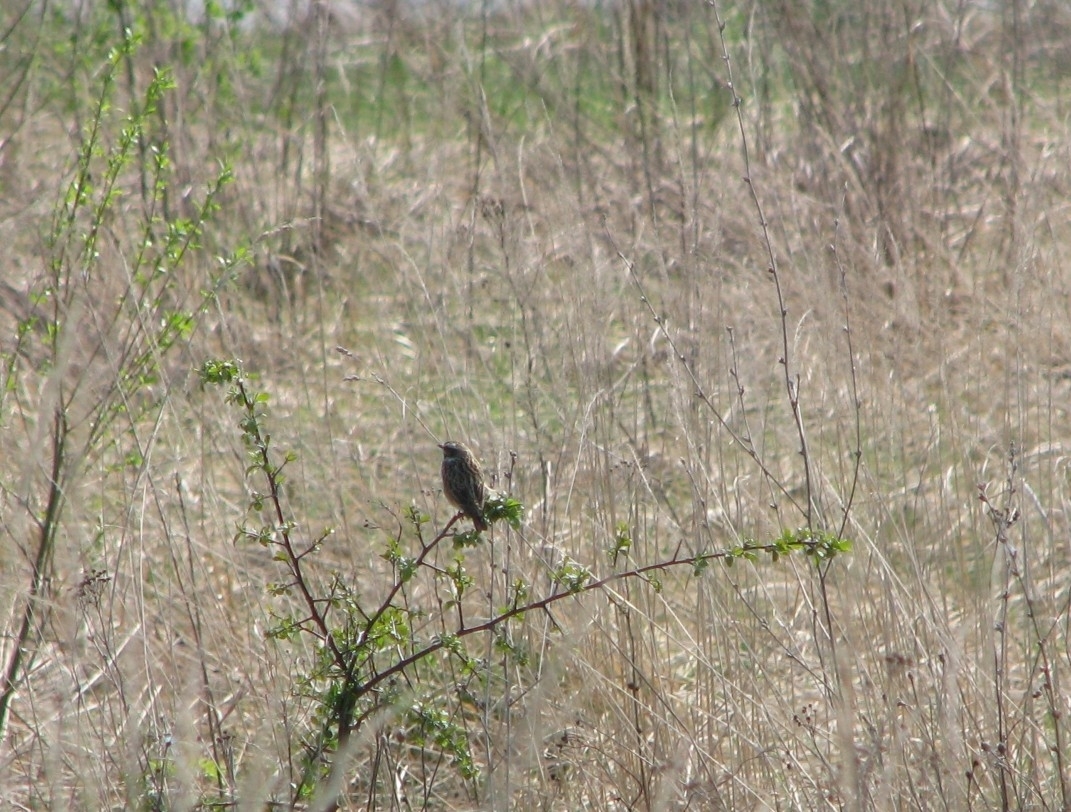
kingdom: Animalia
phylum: Chordata
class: Aves
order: Passeriformes
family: Muscicapidae
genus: Saxicola
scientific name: Saxicola rubetra
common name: Whinchat
